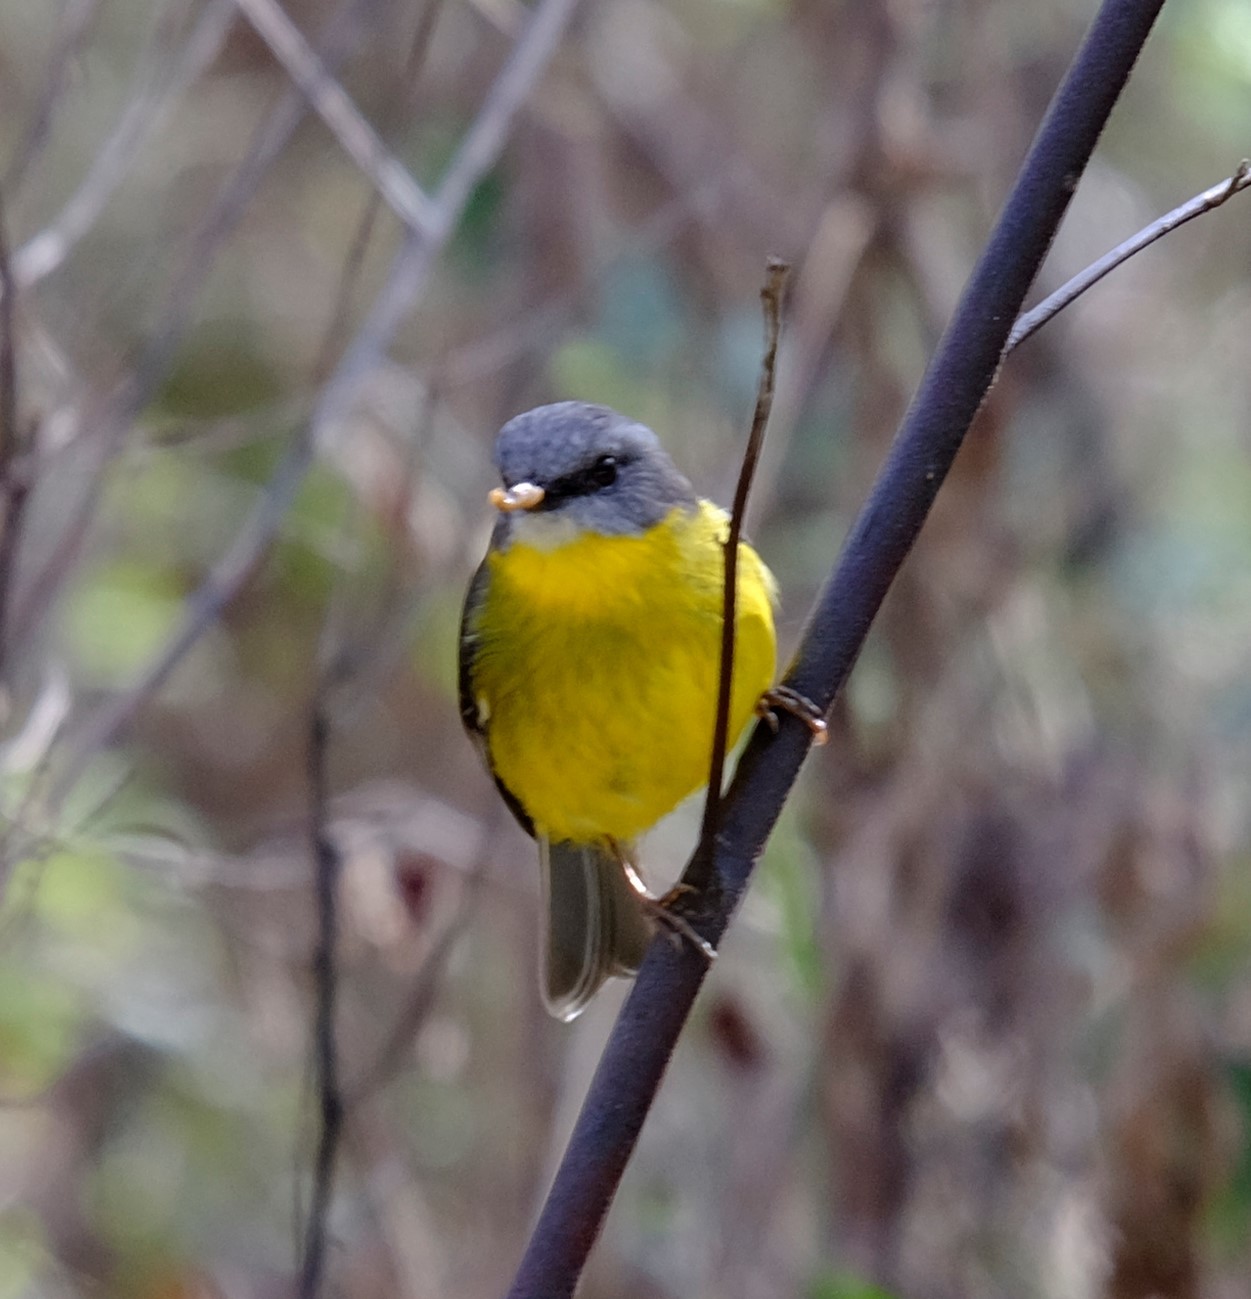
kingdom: Animalia
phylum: Chordata
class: Aves
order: Passeriformes
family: Petroicidae
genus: Eopsaltria
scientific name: Eopsaltria australis
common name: Eastern yellow robin
